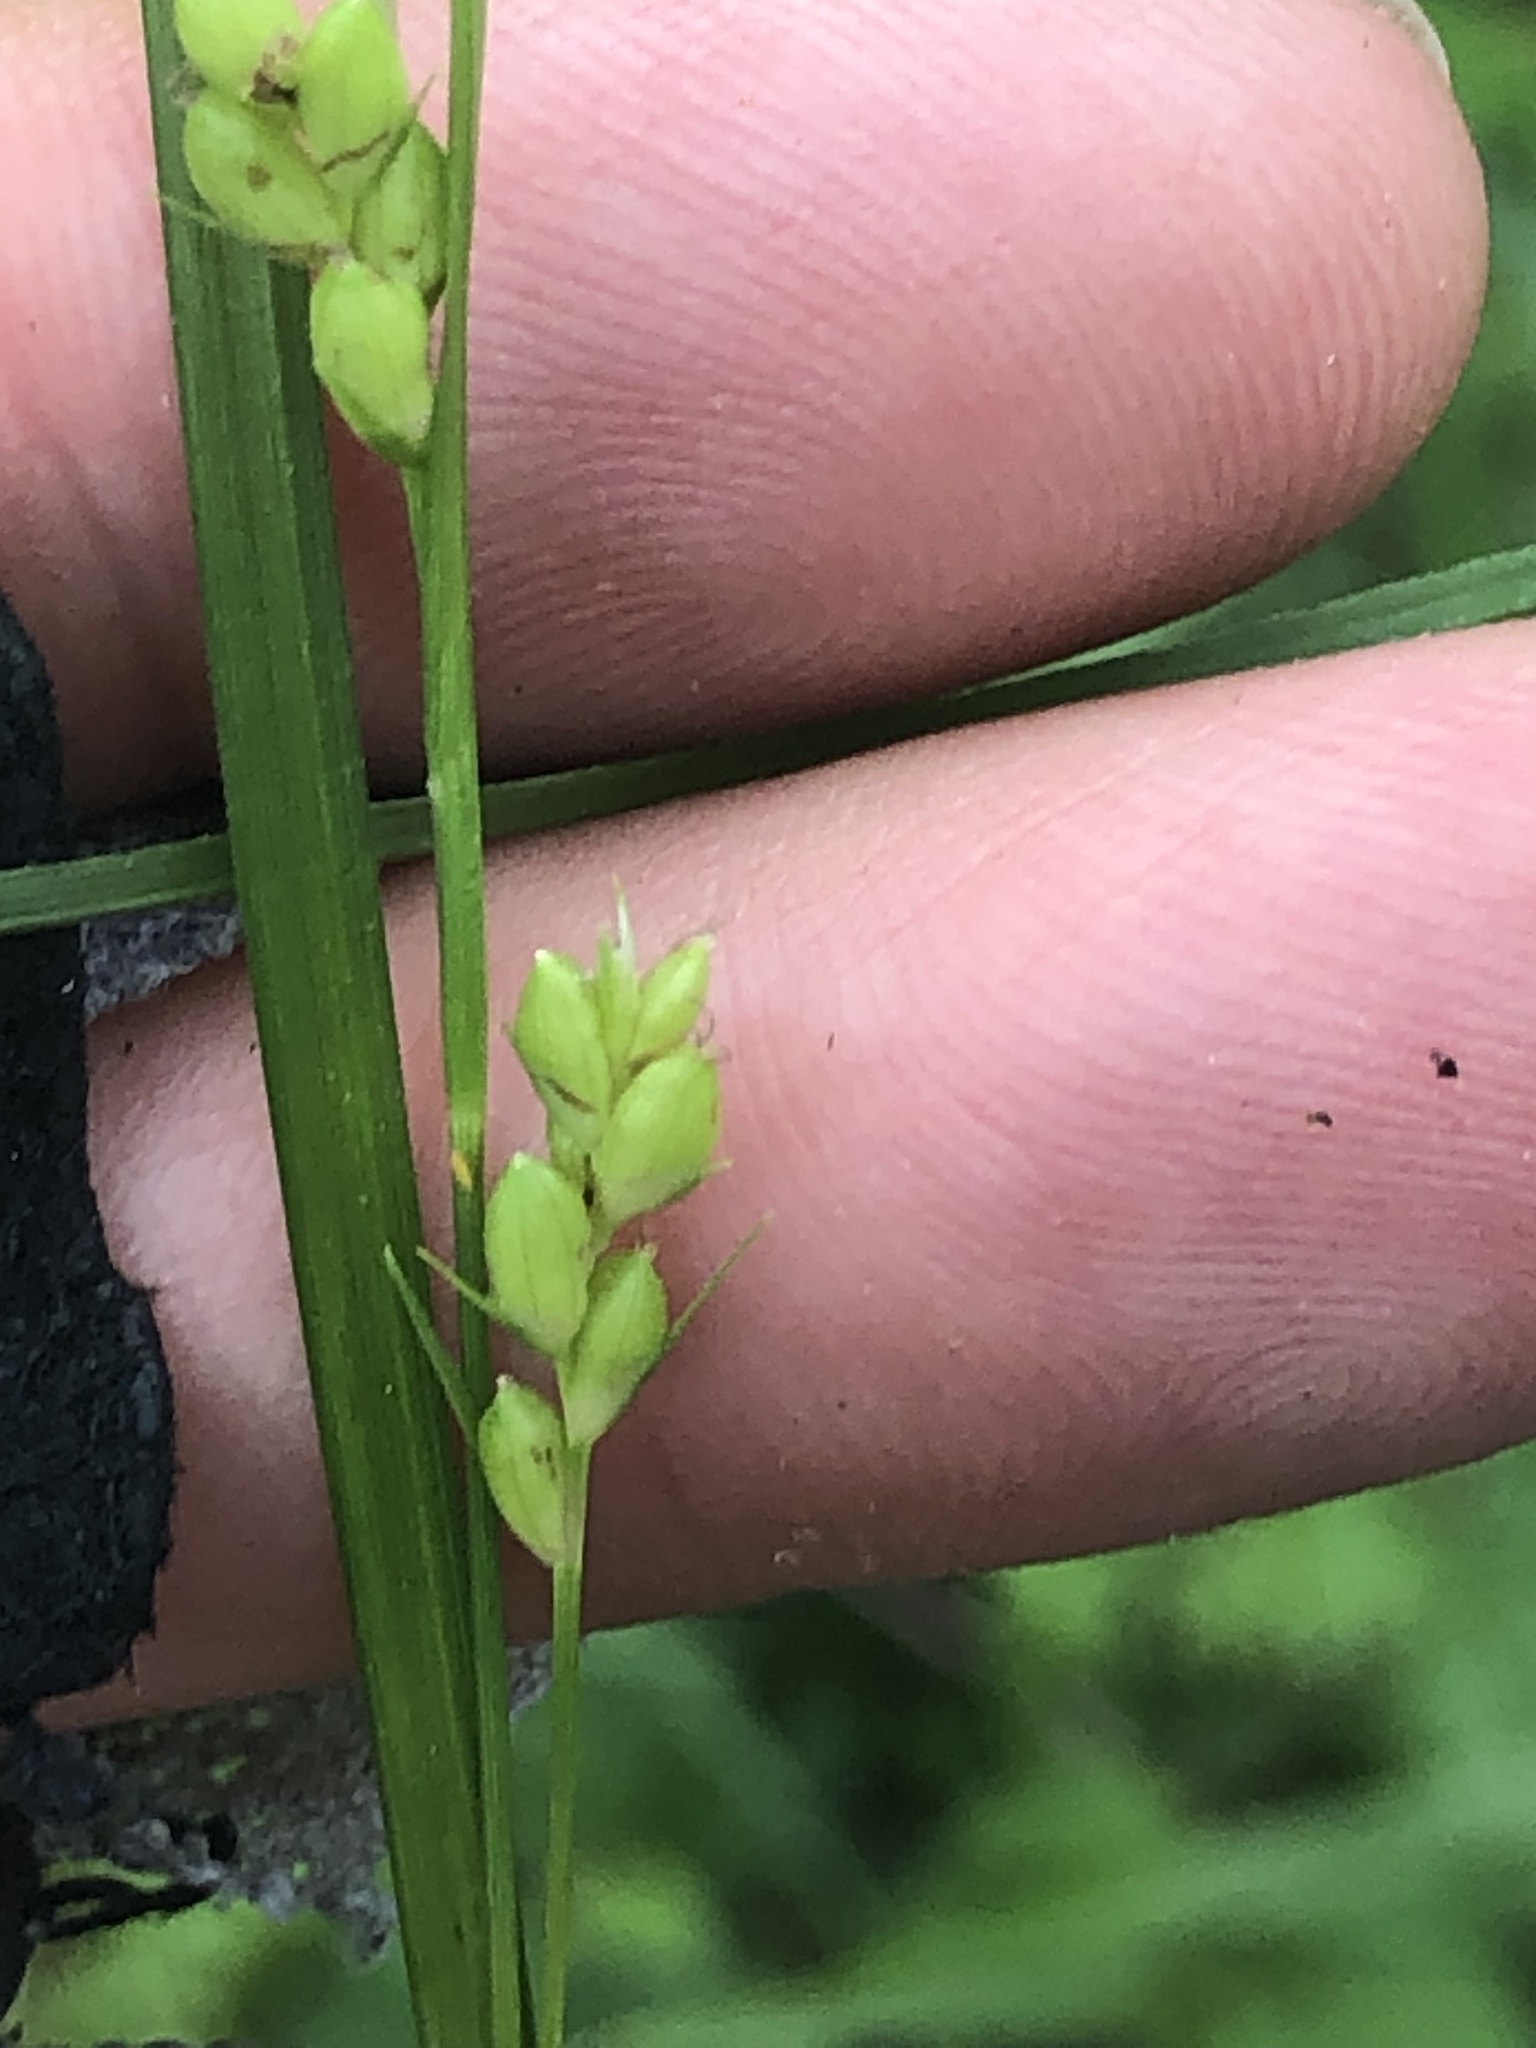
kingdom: Plantae
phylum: Tracheophyta
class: Liliopsida
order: Poales
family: Cyperaceae
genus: Carex
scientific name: Carex corrugata
